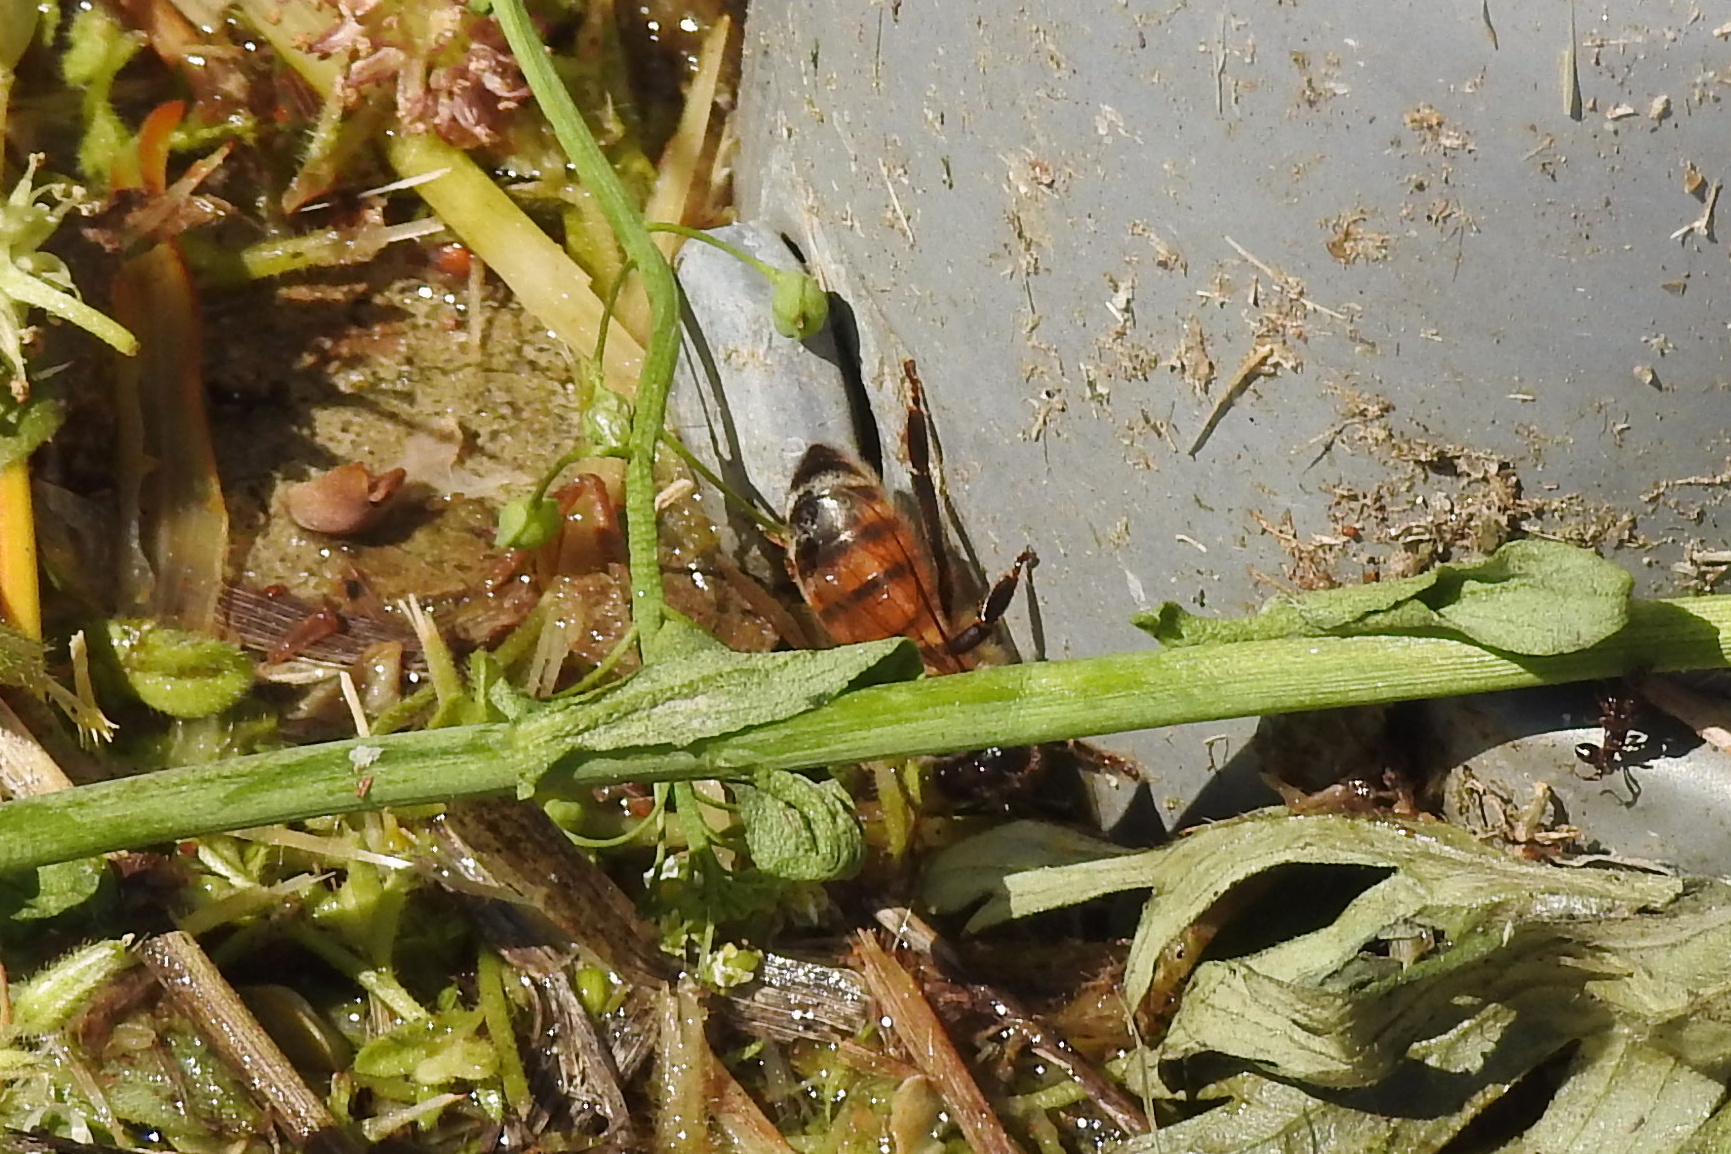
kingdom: Animalia
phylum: Arthropoda
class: Insecta
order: Hymenoptera
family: Apidae
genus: Apis
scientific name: Apis mellifera
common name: Honey bee
